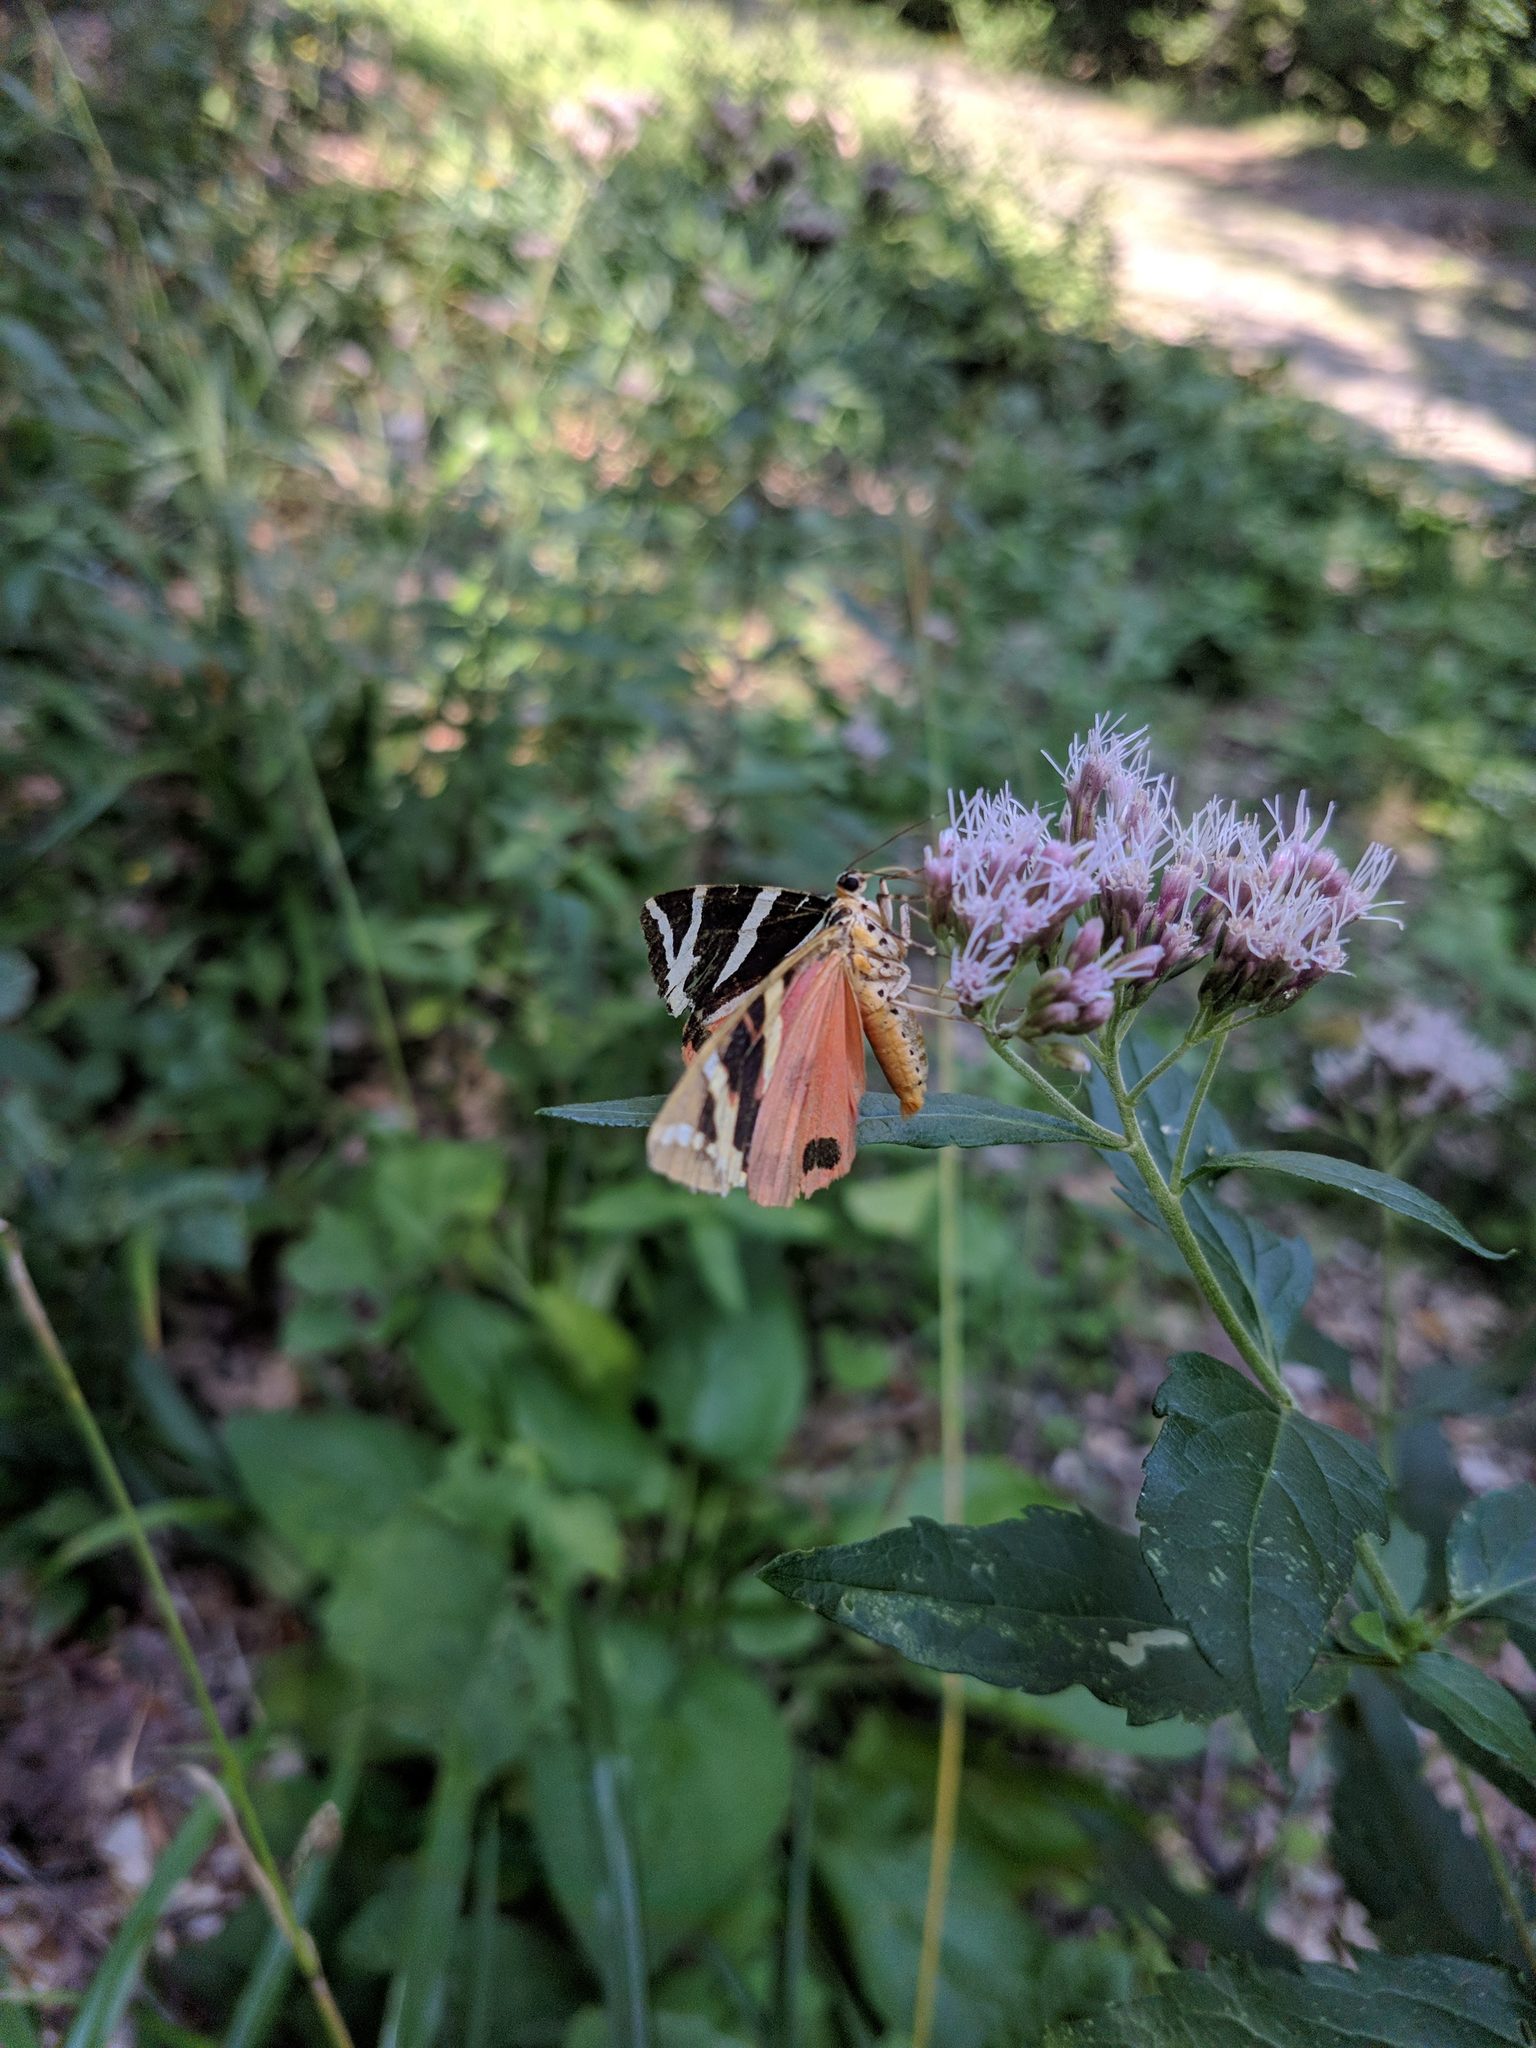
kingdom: Animalia
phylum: Arthropoda
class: Insecta
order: Lepidoptera
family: Erebidae
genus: Euplagia
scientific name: Euplagia quadripunctaria
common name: Jersey tiger
